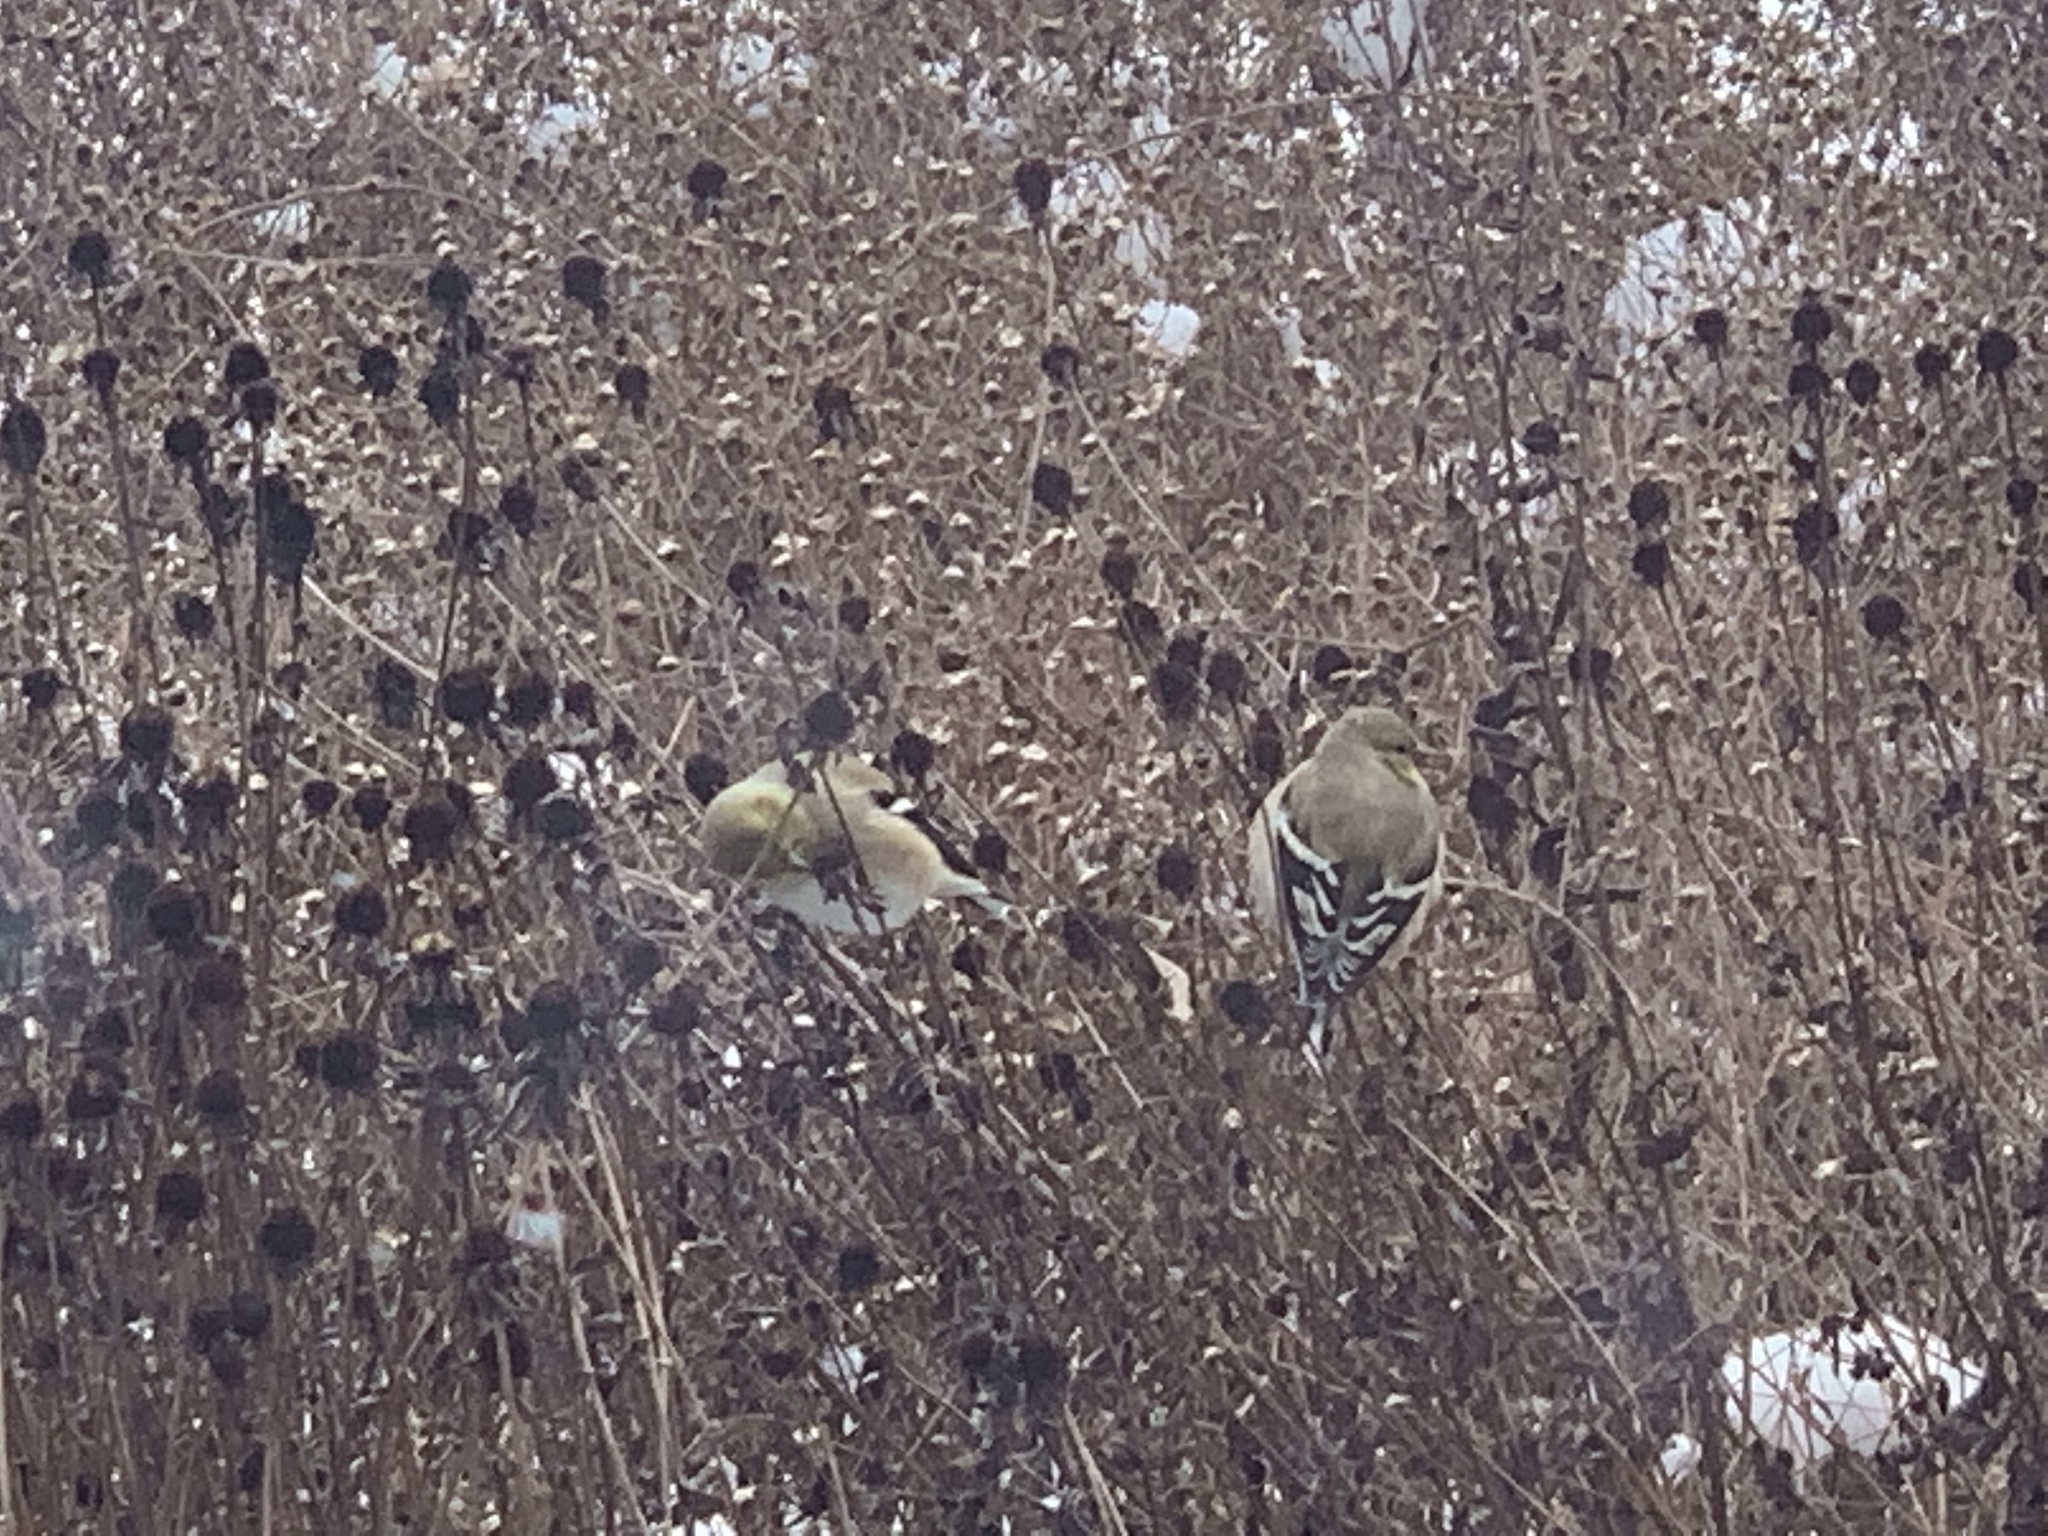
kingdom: Animalia
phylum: Chordata
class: Aves
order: Passeriformes
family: Fringillidae
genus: Spinus
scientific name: Spinus tristis
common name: American goldfinch
